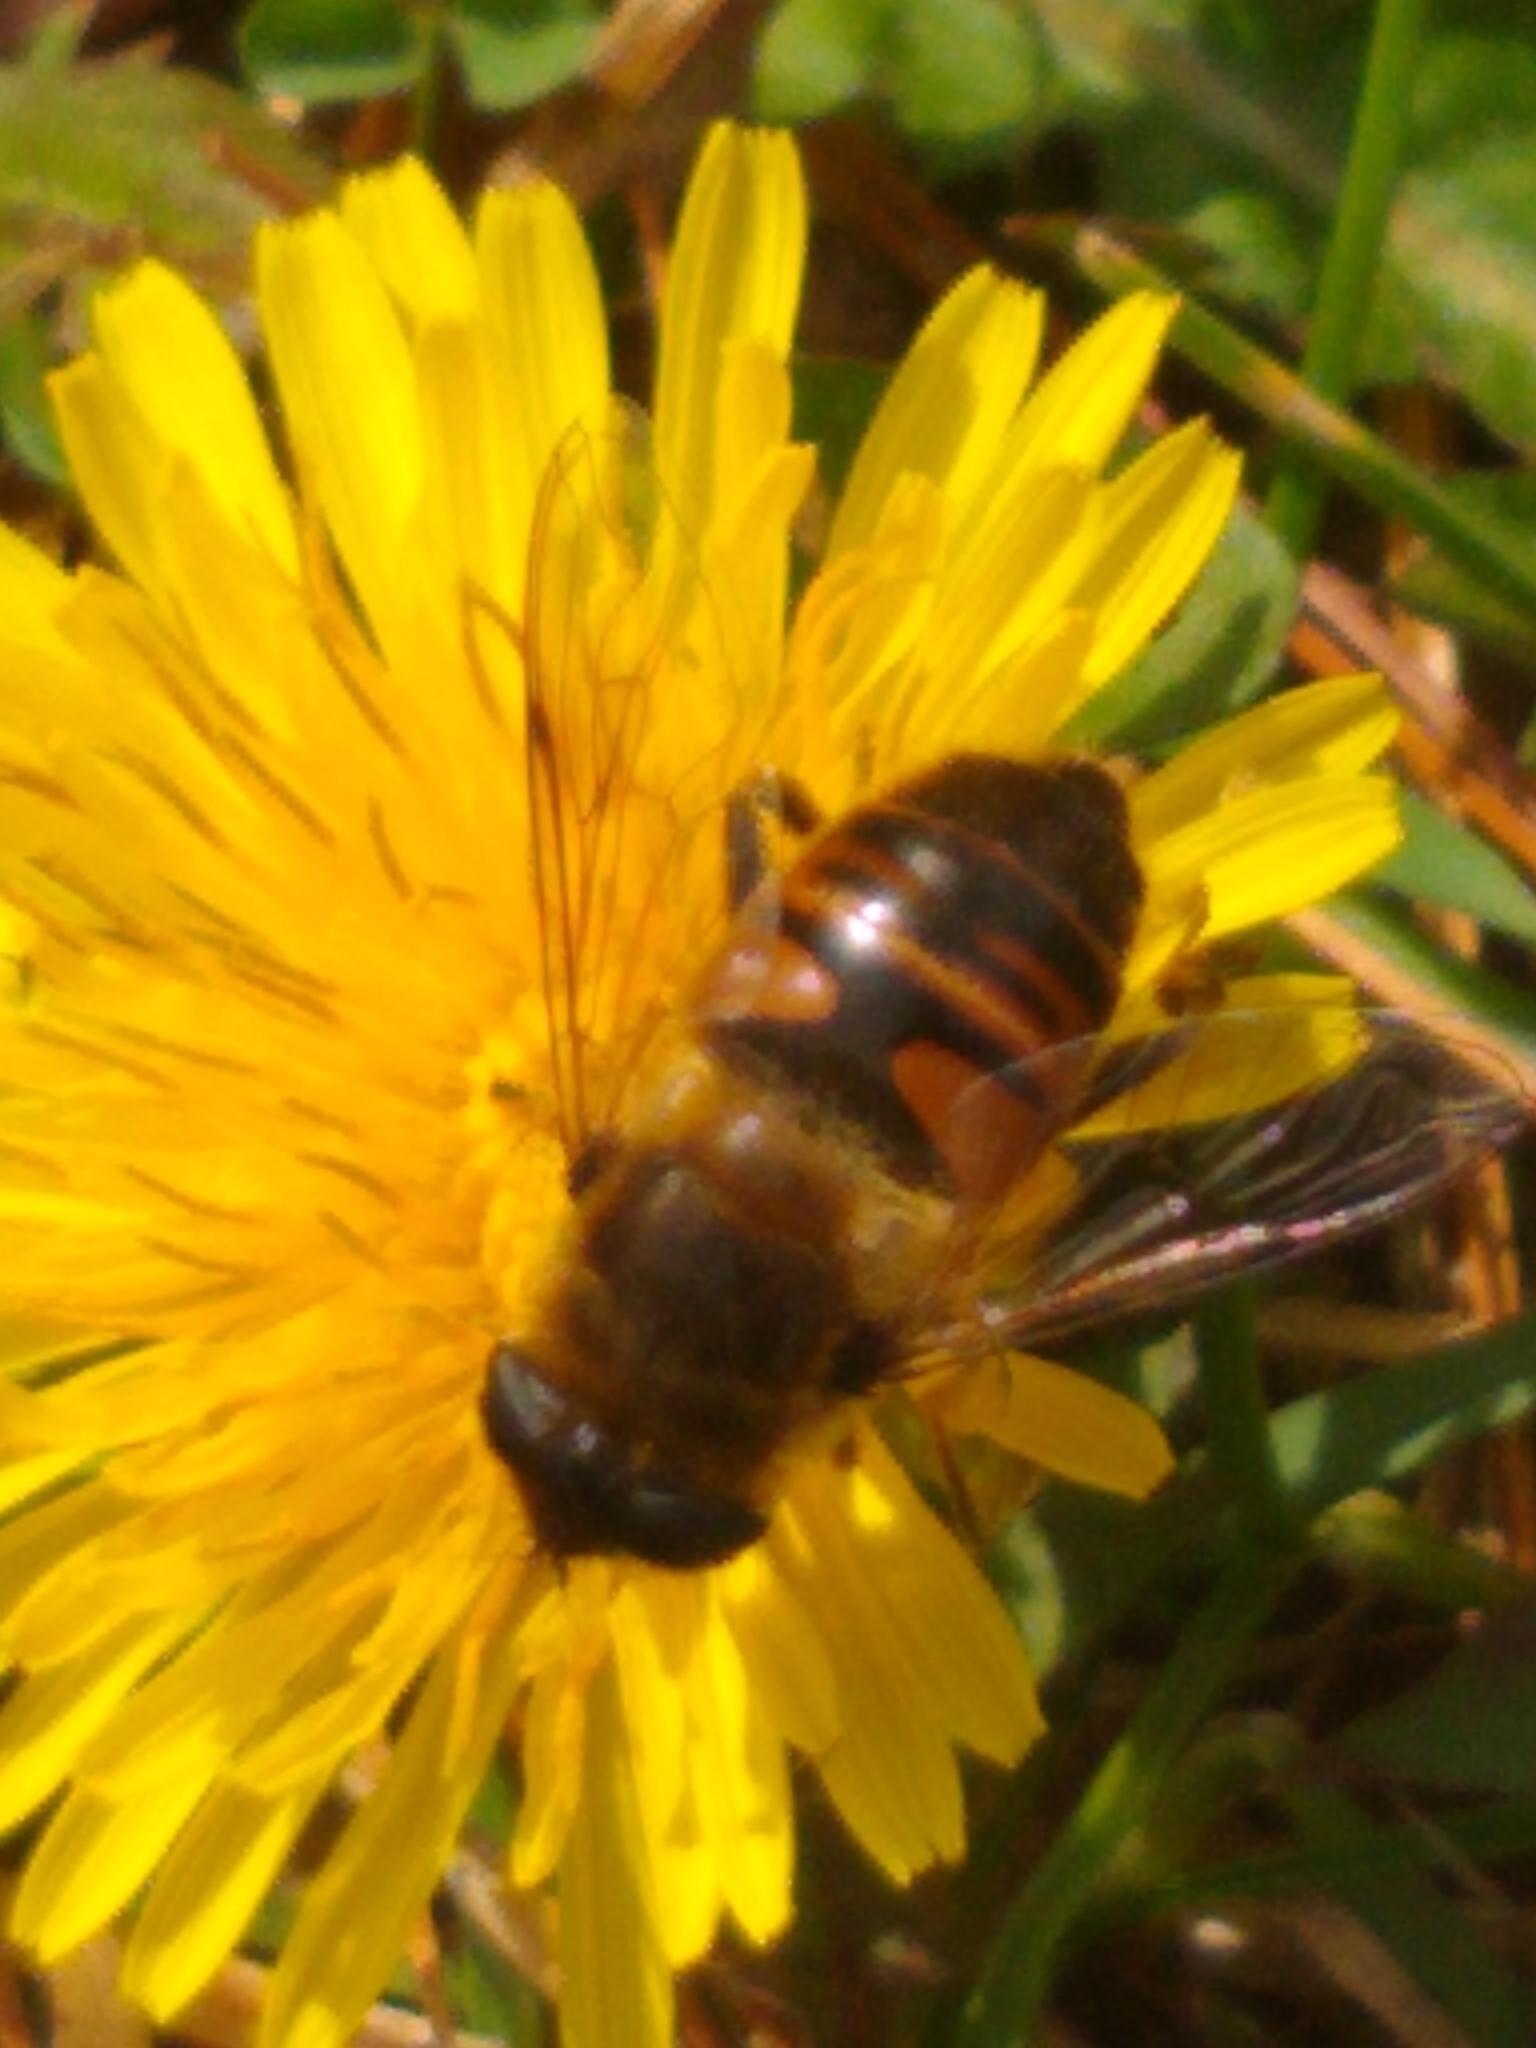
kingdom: Animalia
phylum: Arthropoda
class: Insecta
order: Diptera
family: Syrphidae
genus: Eristalis
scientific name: Eristalis tenax
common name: Drone fly
